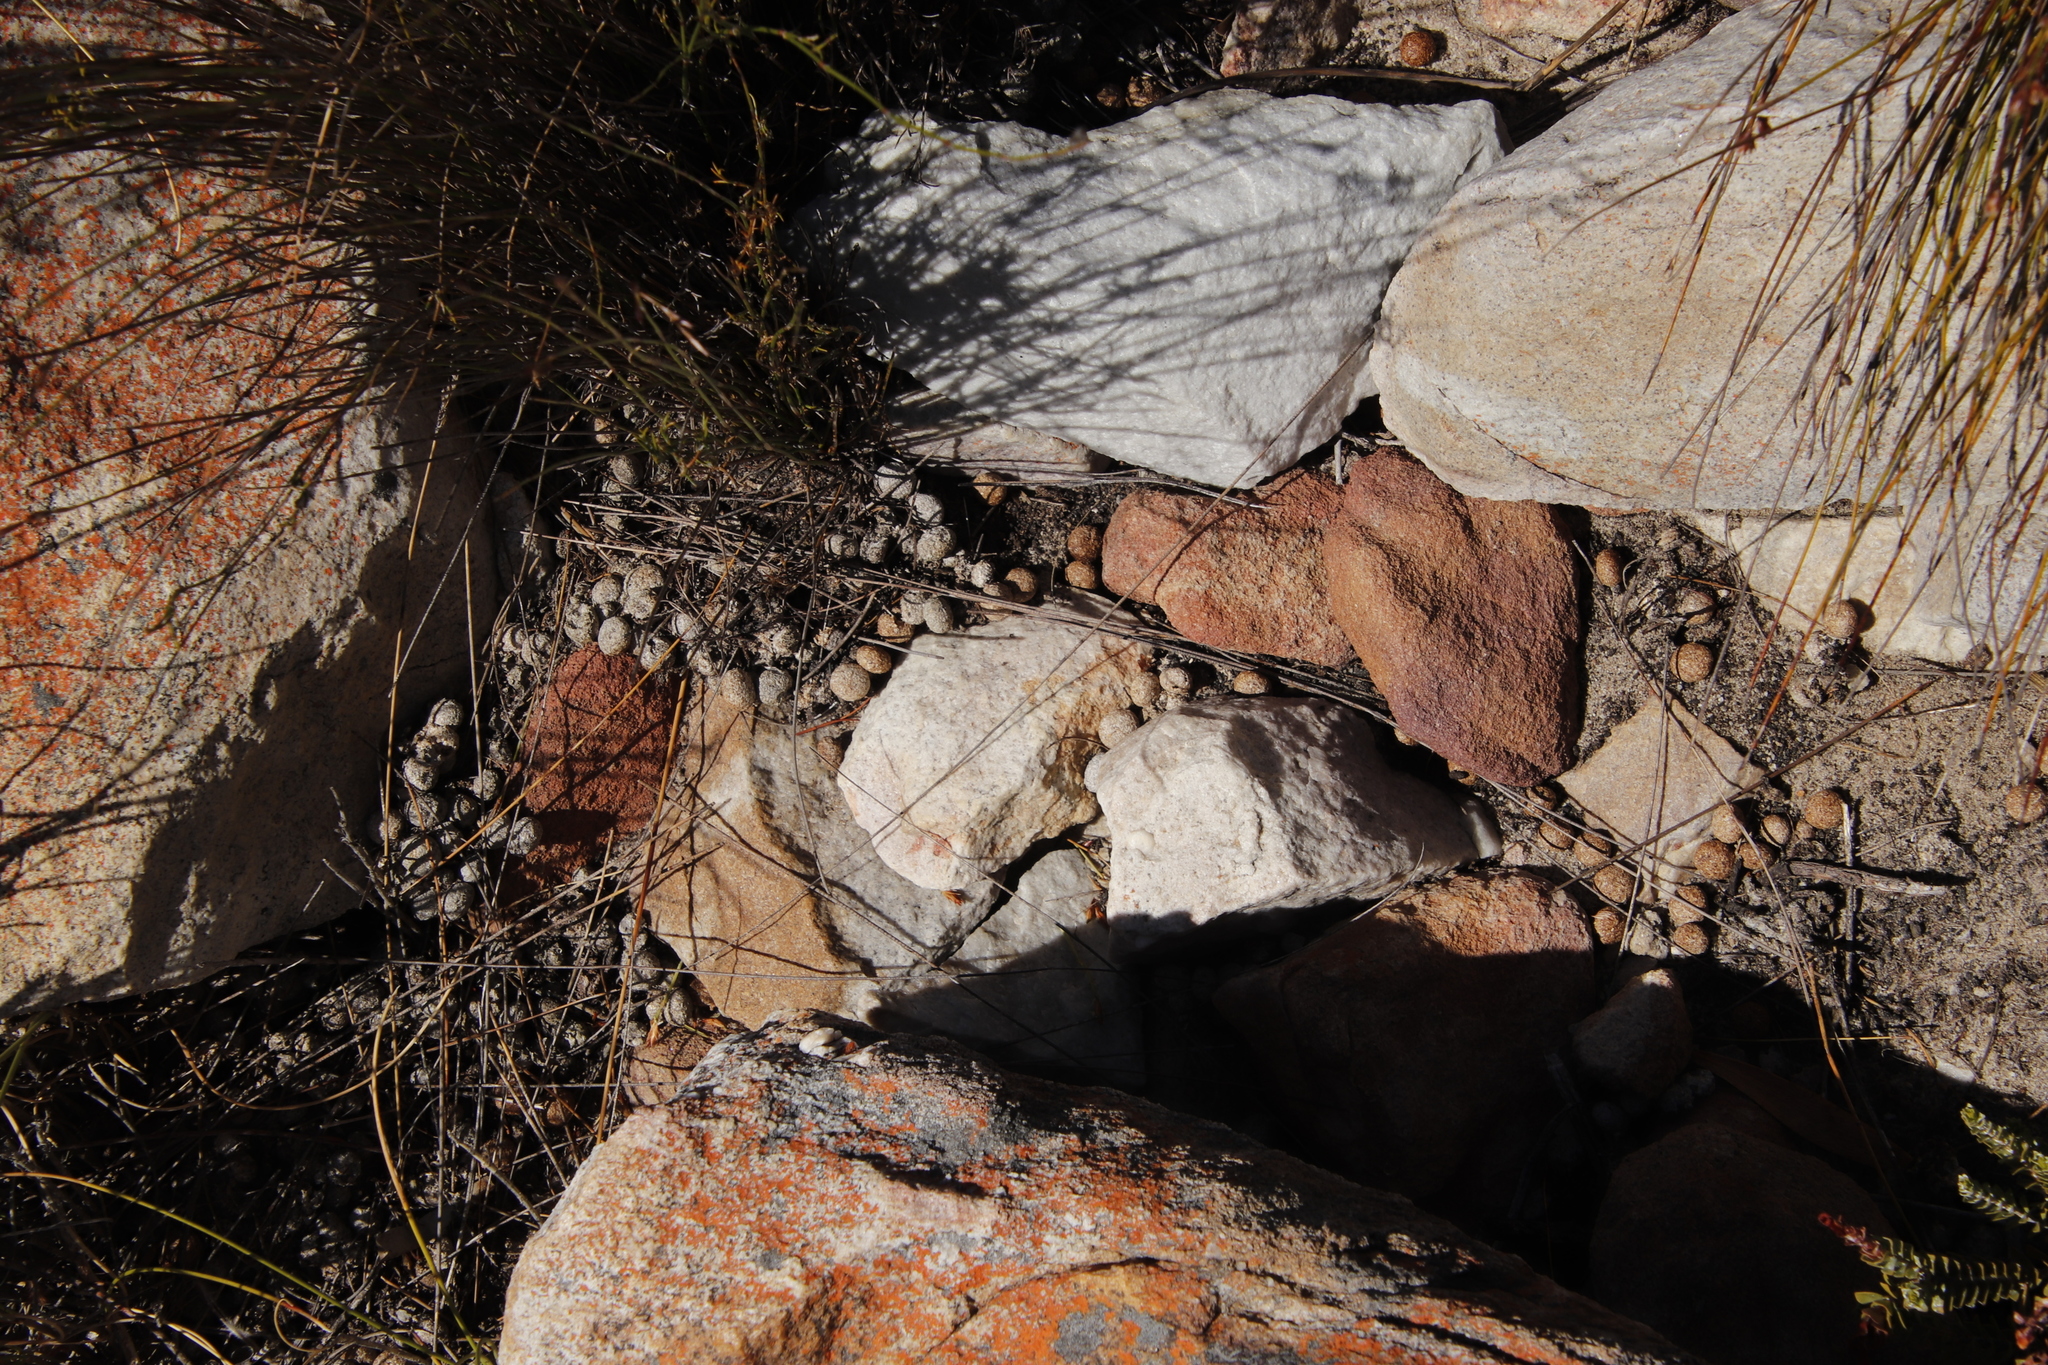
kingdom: Animalia
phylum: Chordata
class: Mammalia
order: Lagomorpha
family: Leporidae
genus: Pronolagus
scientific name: Pronolagus saundersiae
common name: Hewitt's red rock hare
